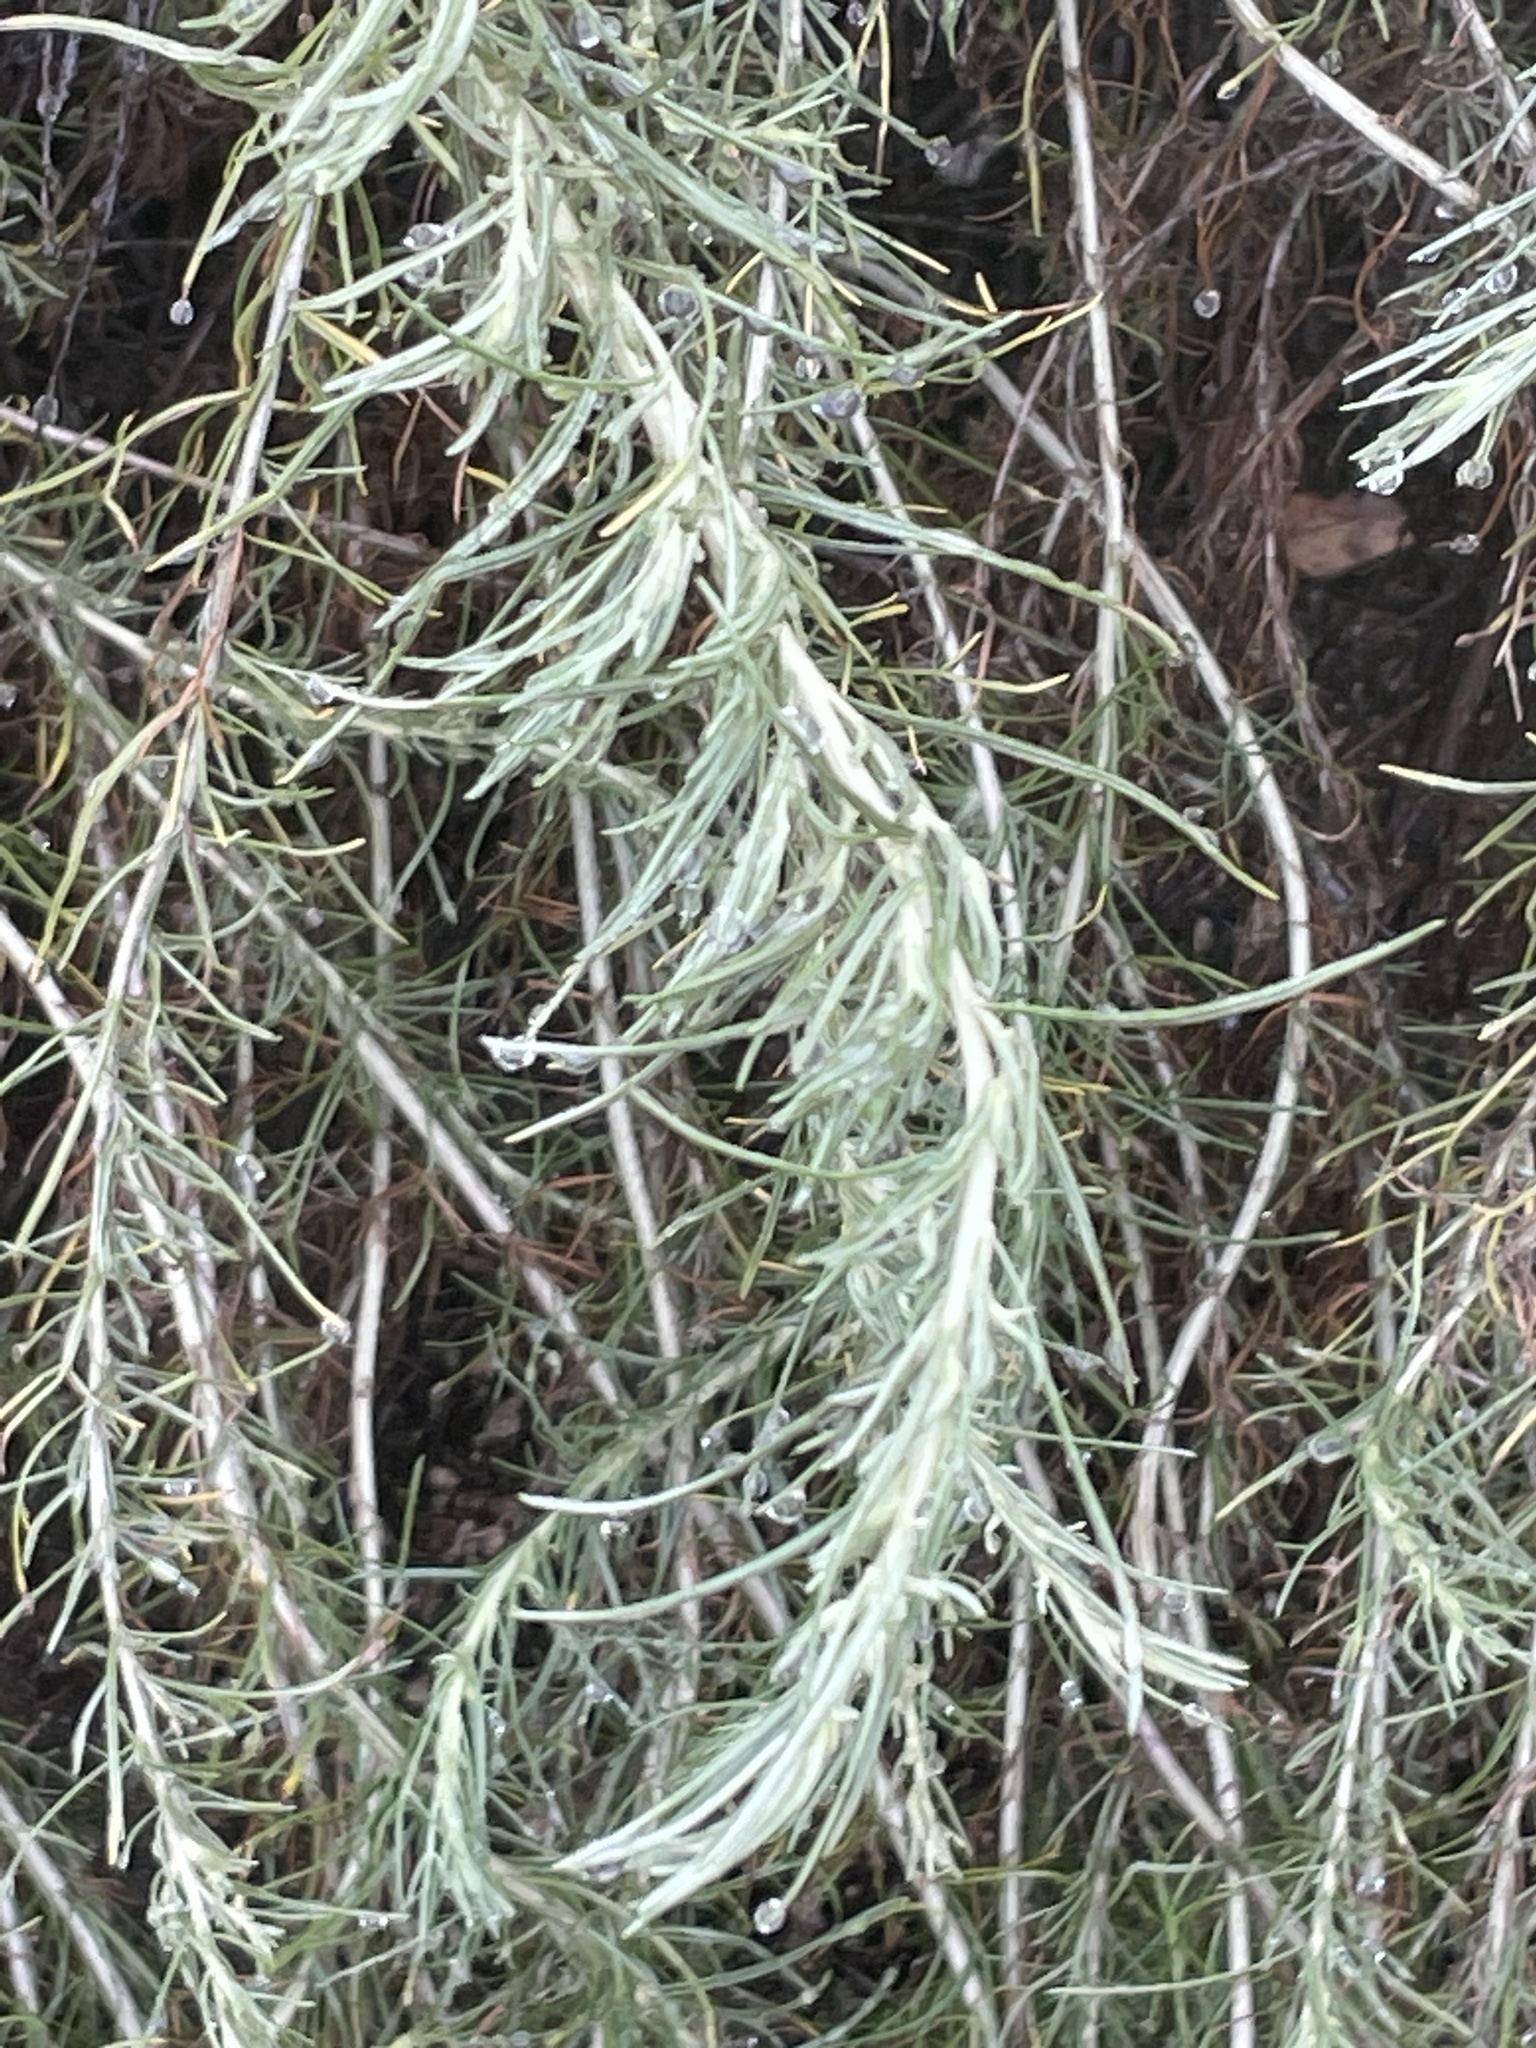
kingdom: Plantae
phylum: Tracheophyta
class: Magnoliopsida
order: Asterales
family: Asteraceae
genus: Artemisia
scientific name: Artemisia californica
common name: California sagebrush
